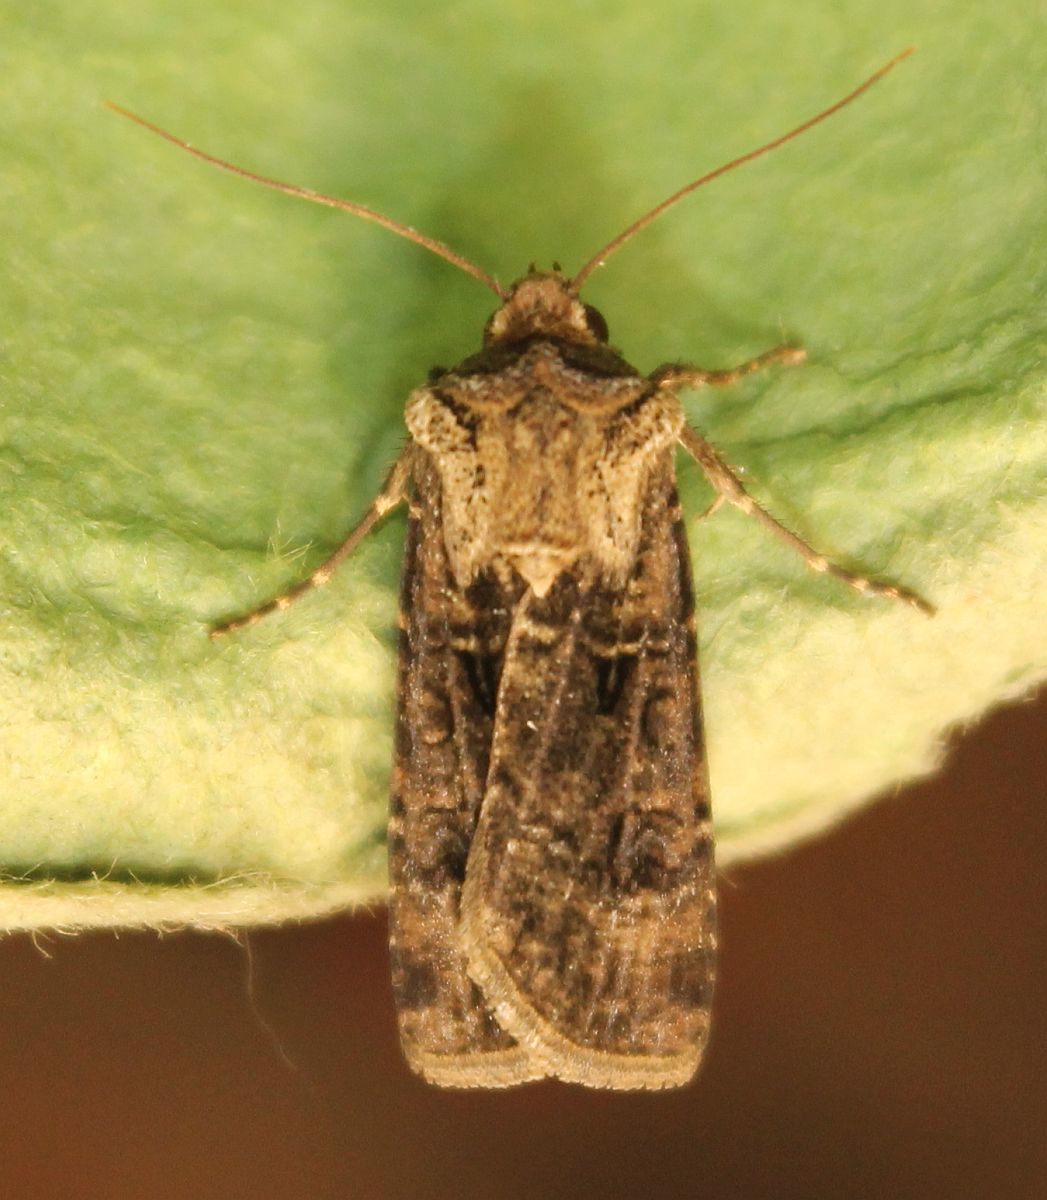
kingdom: Animalia
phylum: Arthropoda
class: Insecta
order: Lepidoptera
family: Noctuidae
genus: Agrotis
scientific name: Agrotis clavis
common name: Heart and club
